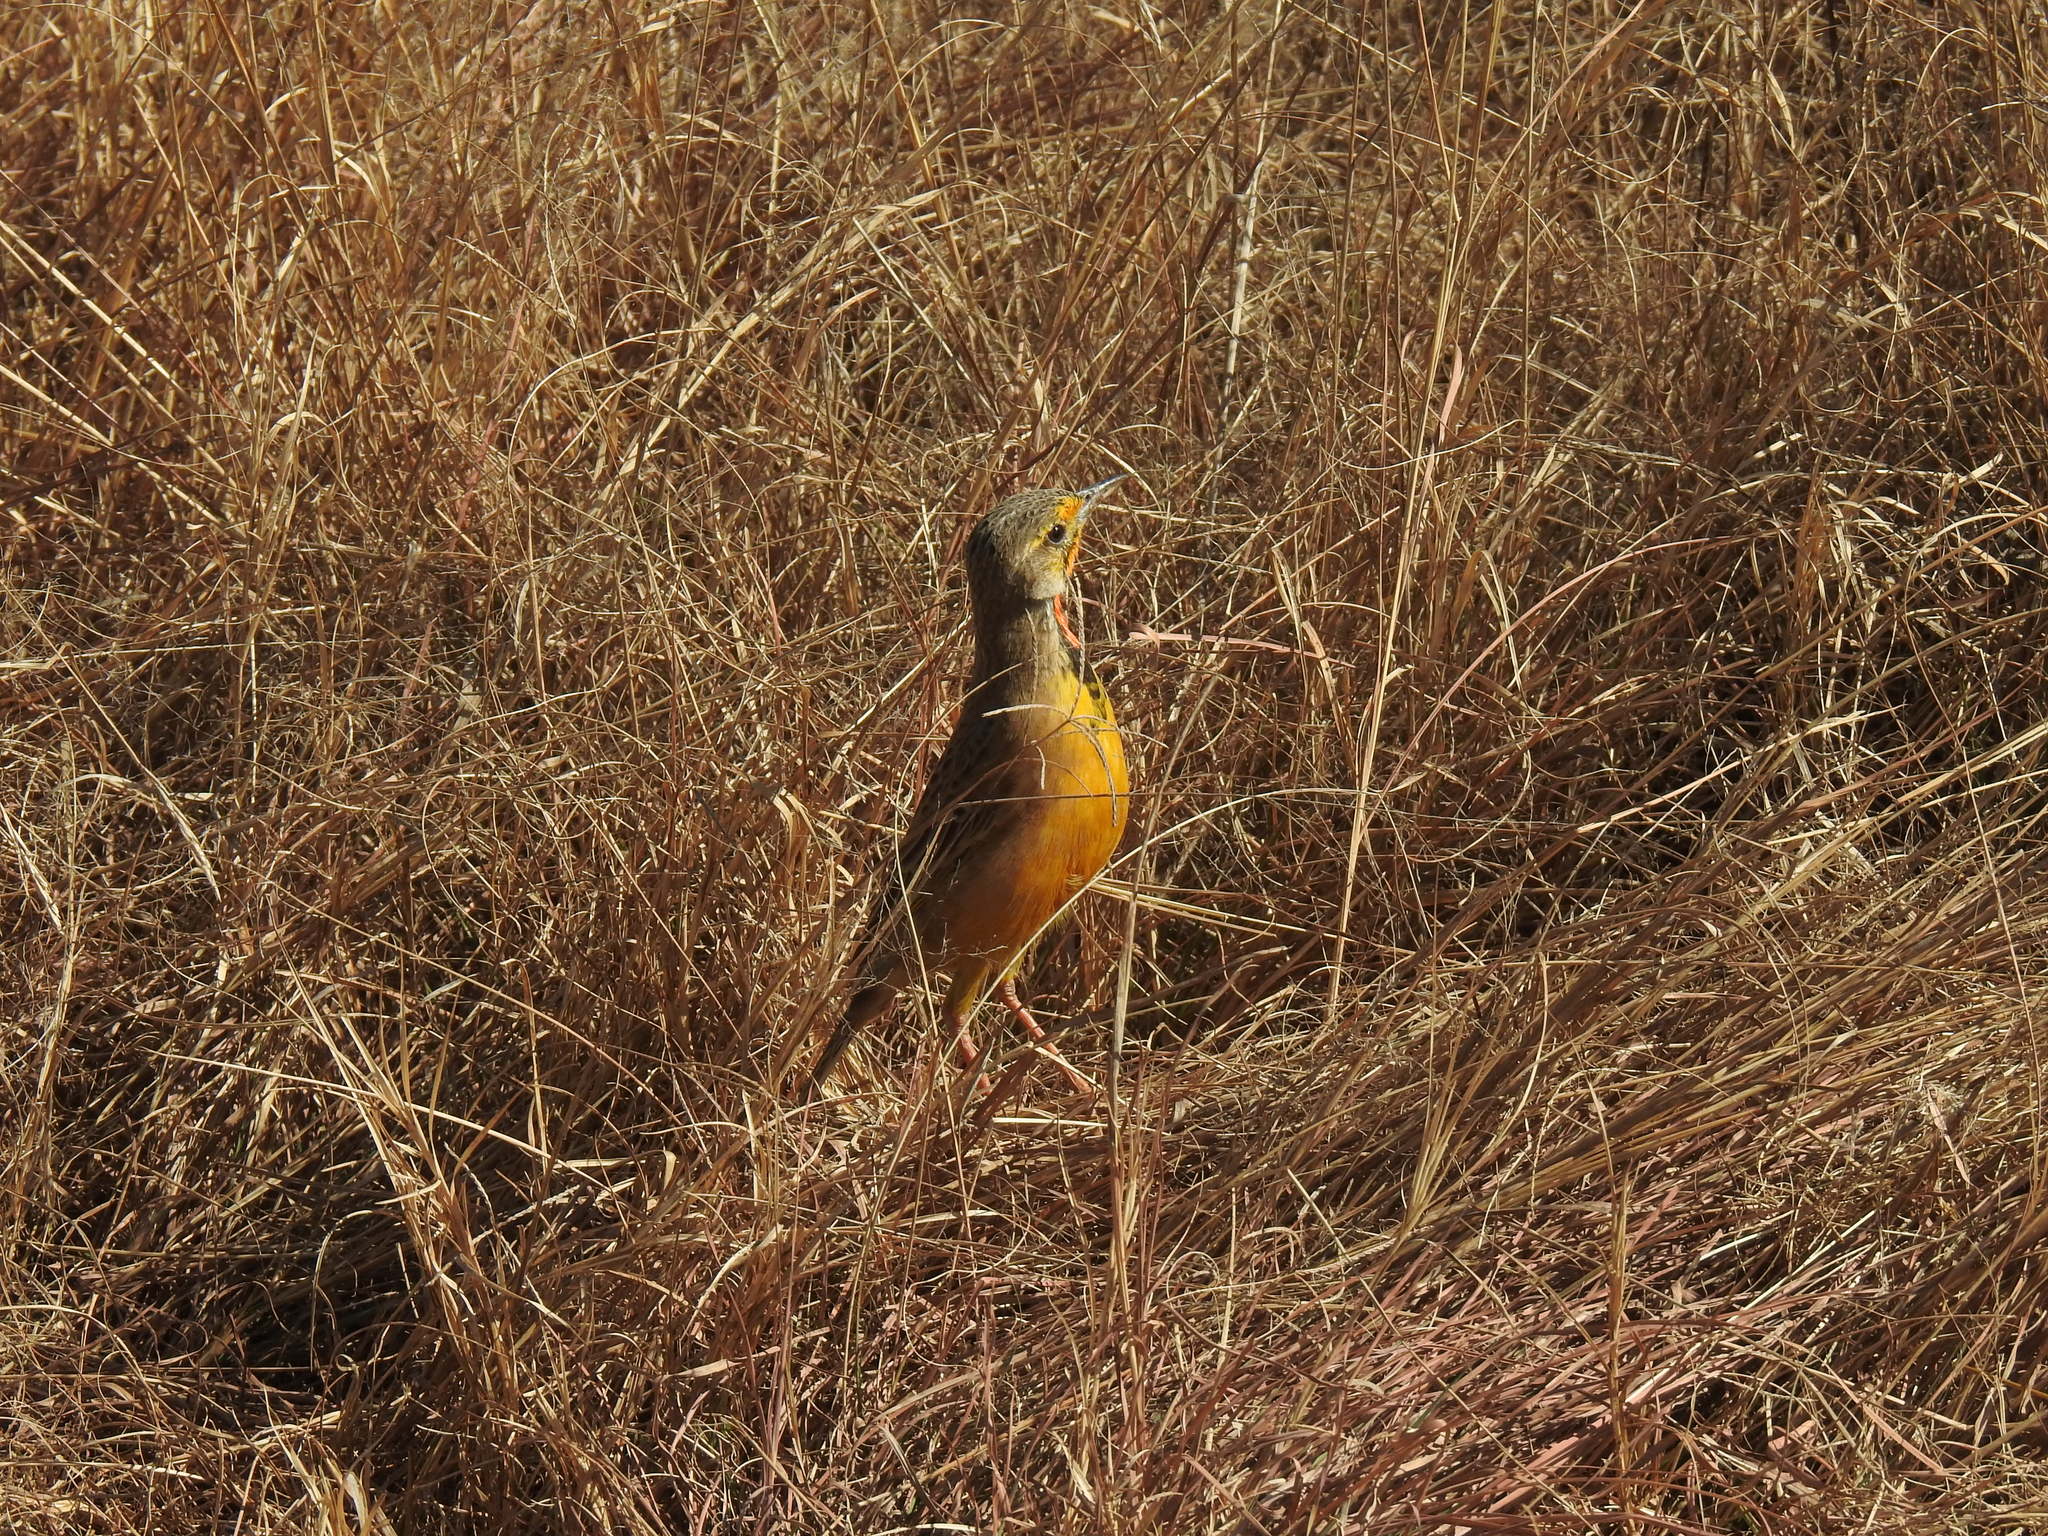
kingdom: Animalia
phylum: Chordata
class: Aves
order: Passeriformes
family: Motacillidae
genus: Macronyx
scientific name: Macronyx capensis
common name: Cape longclaw
